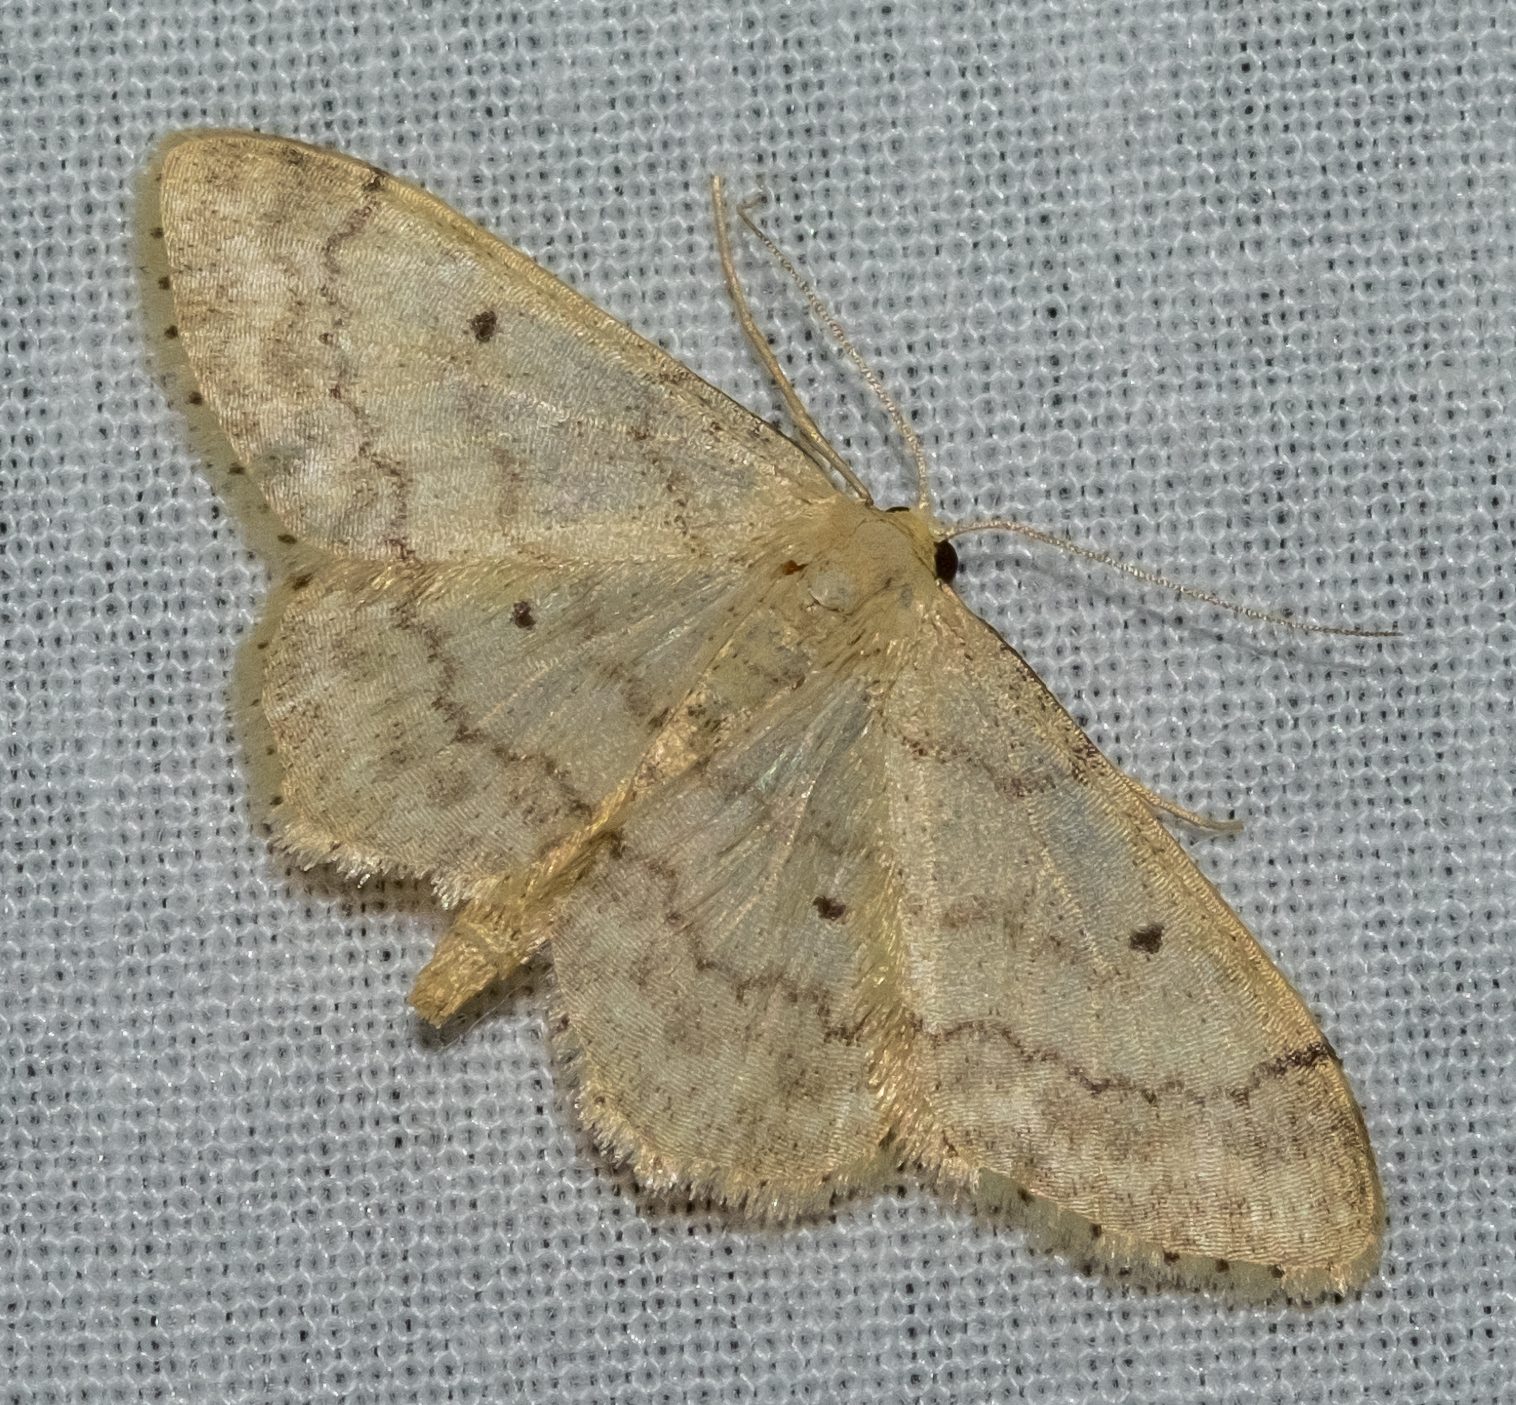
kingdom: Animalia
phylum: Arthropoda
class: Insecta
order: Lepidoptera
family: Geometridae
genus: Idaea
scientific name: Idaea biselata
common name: Small fan-footed wave
